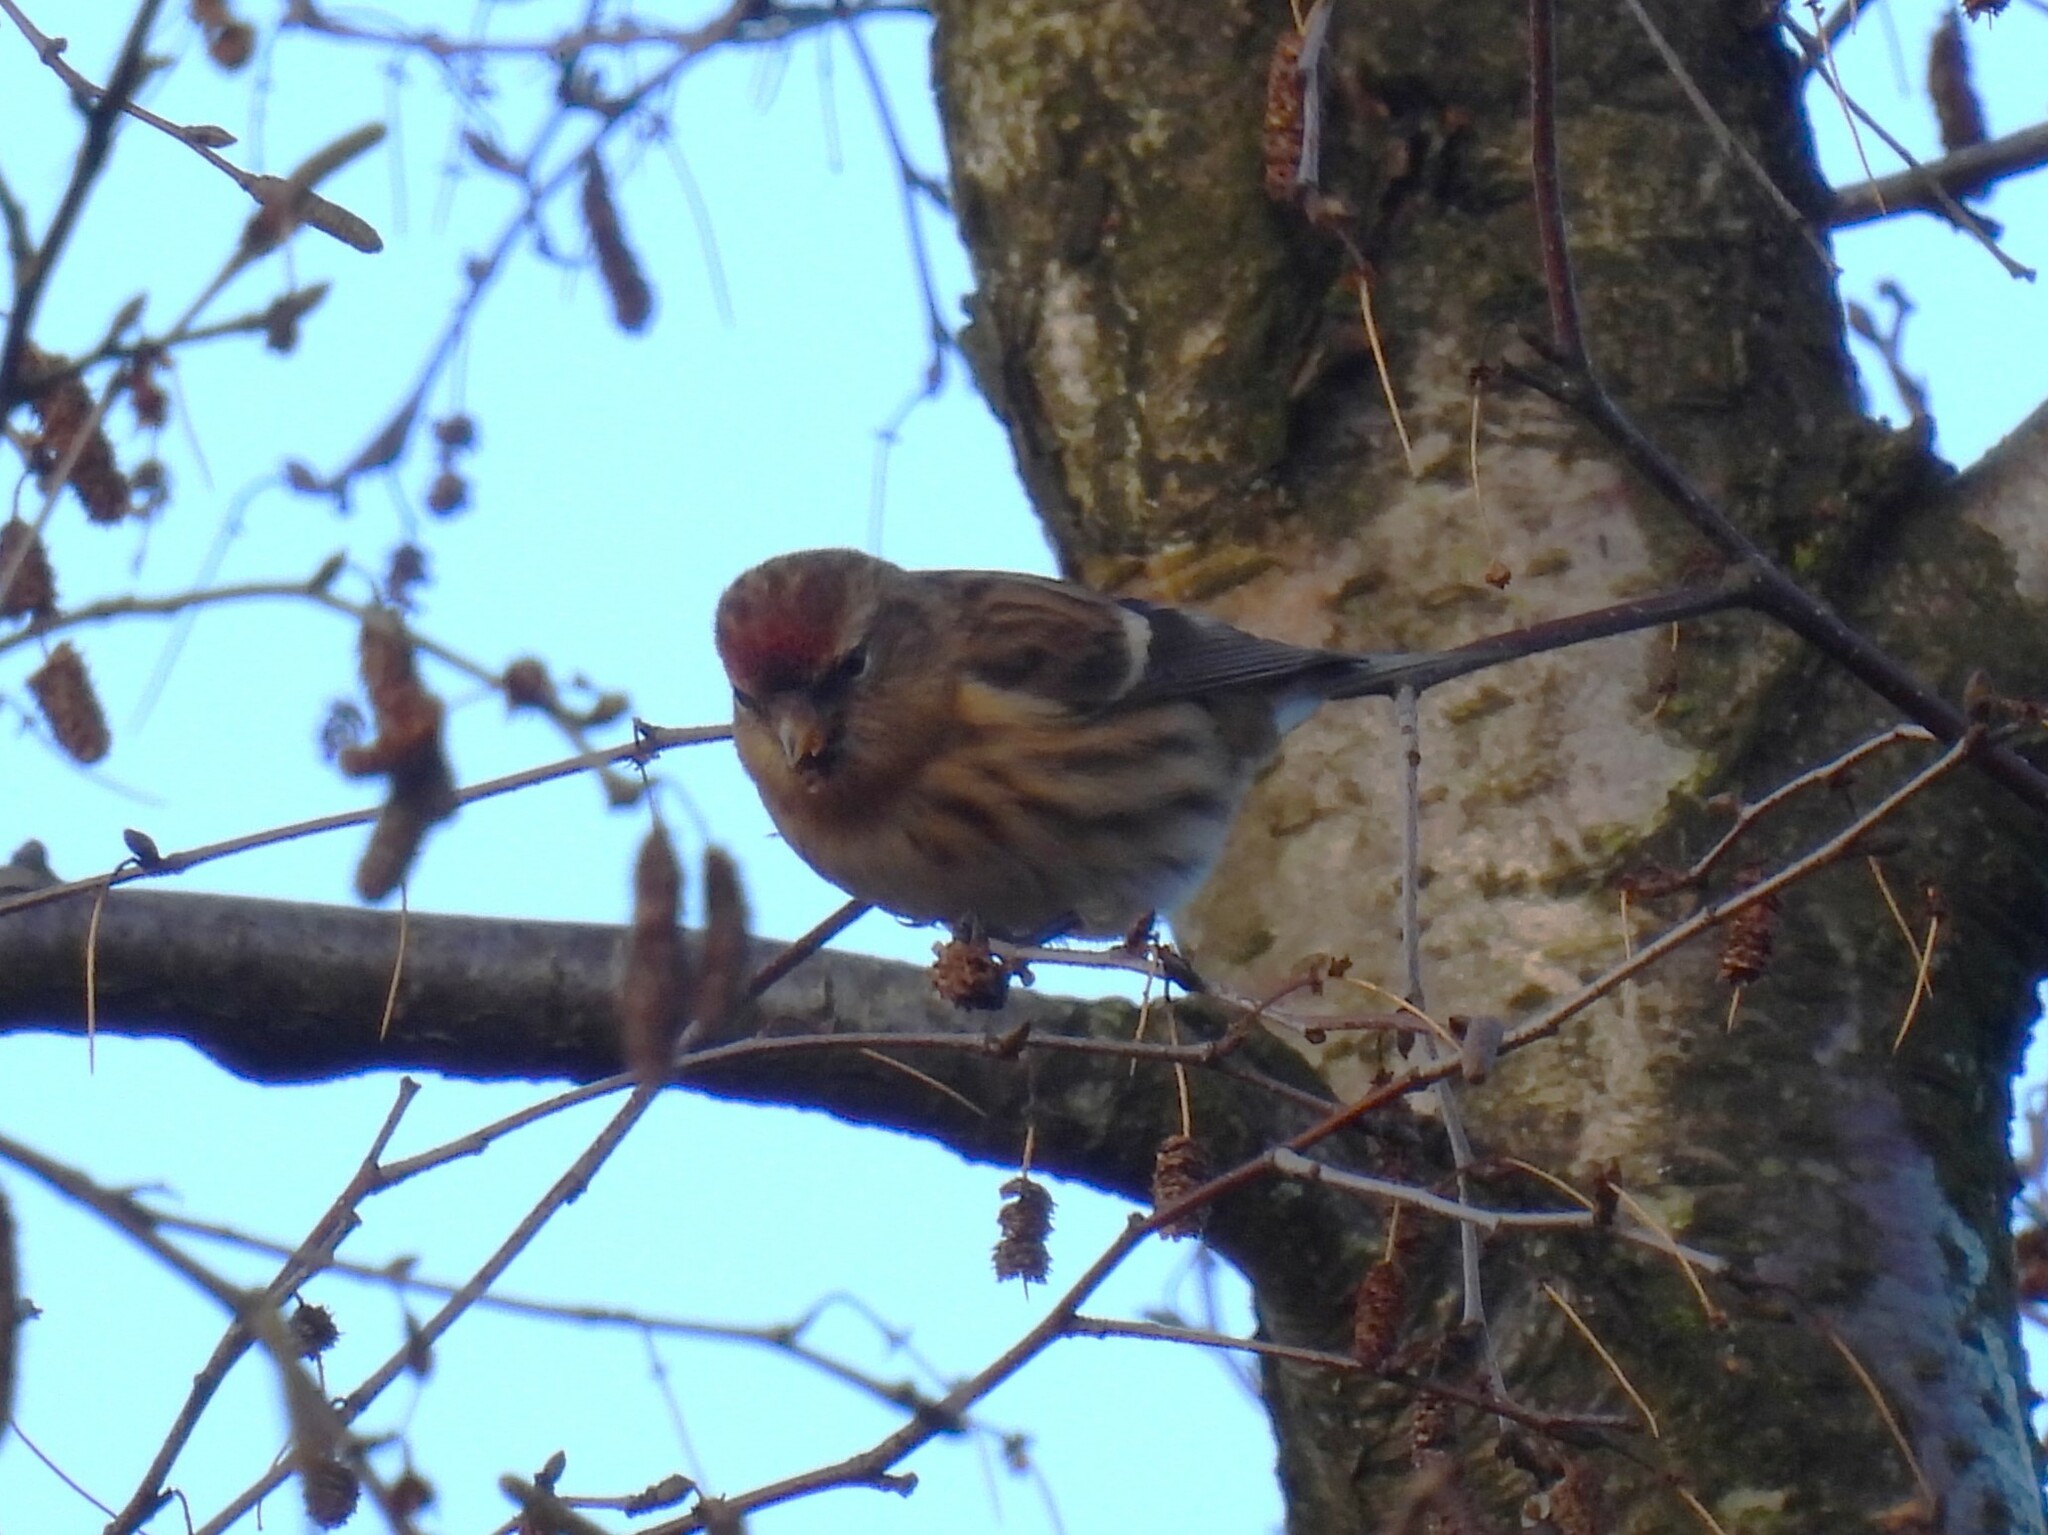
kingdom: Animalia
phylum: Chordata
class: Aves
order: Passeriformes
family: Fringillidae
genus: Acanthis
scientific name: Acanthis flammea
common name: Common redpoll
